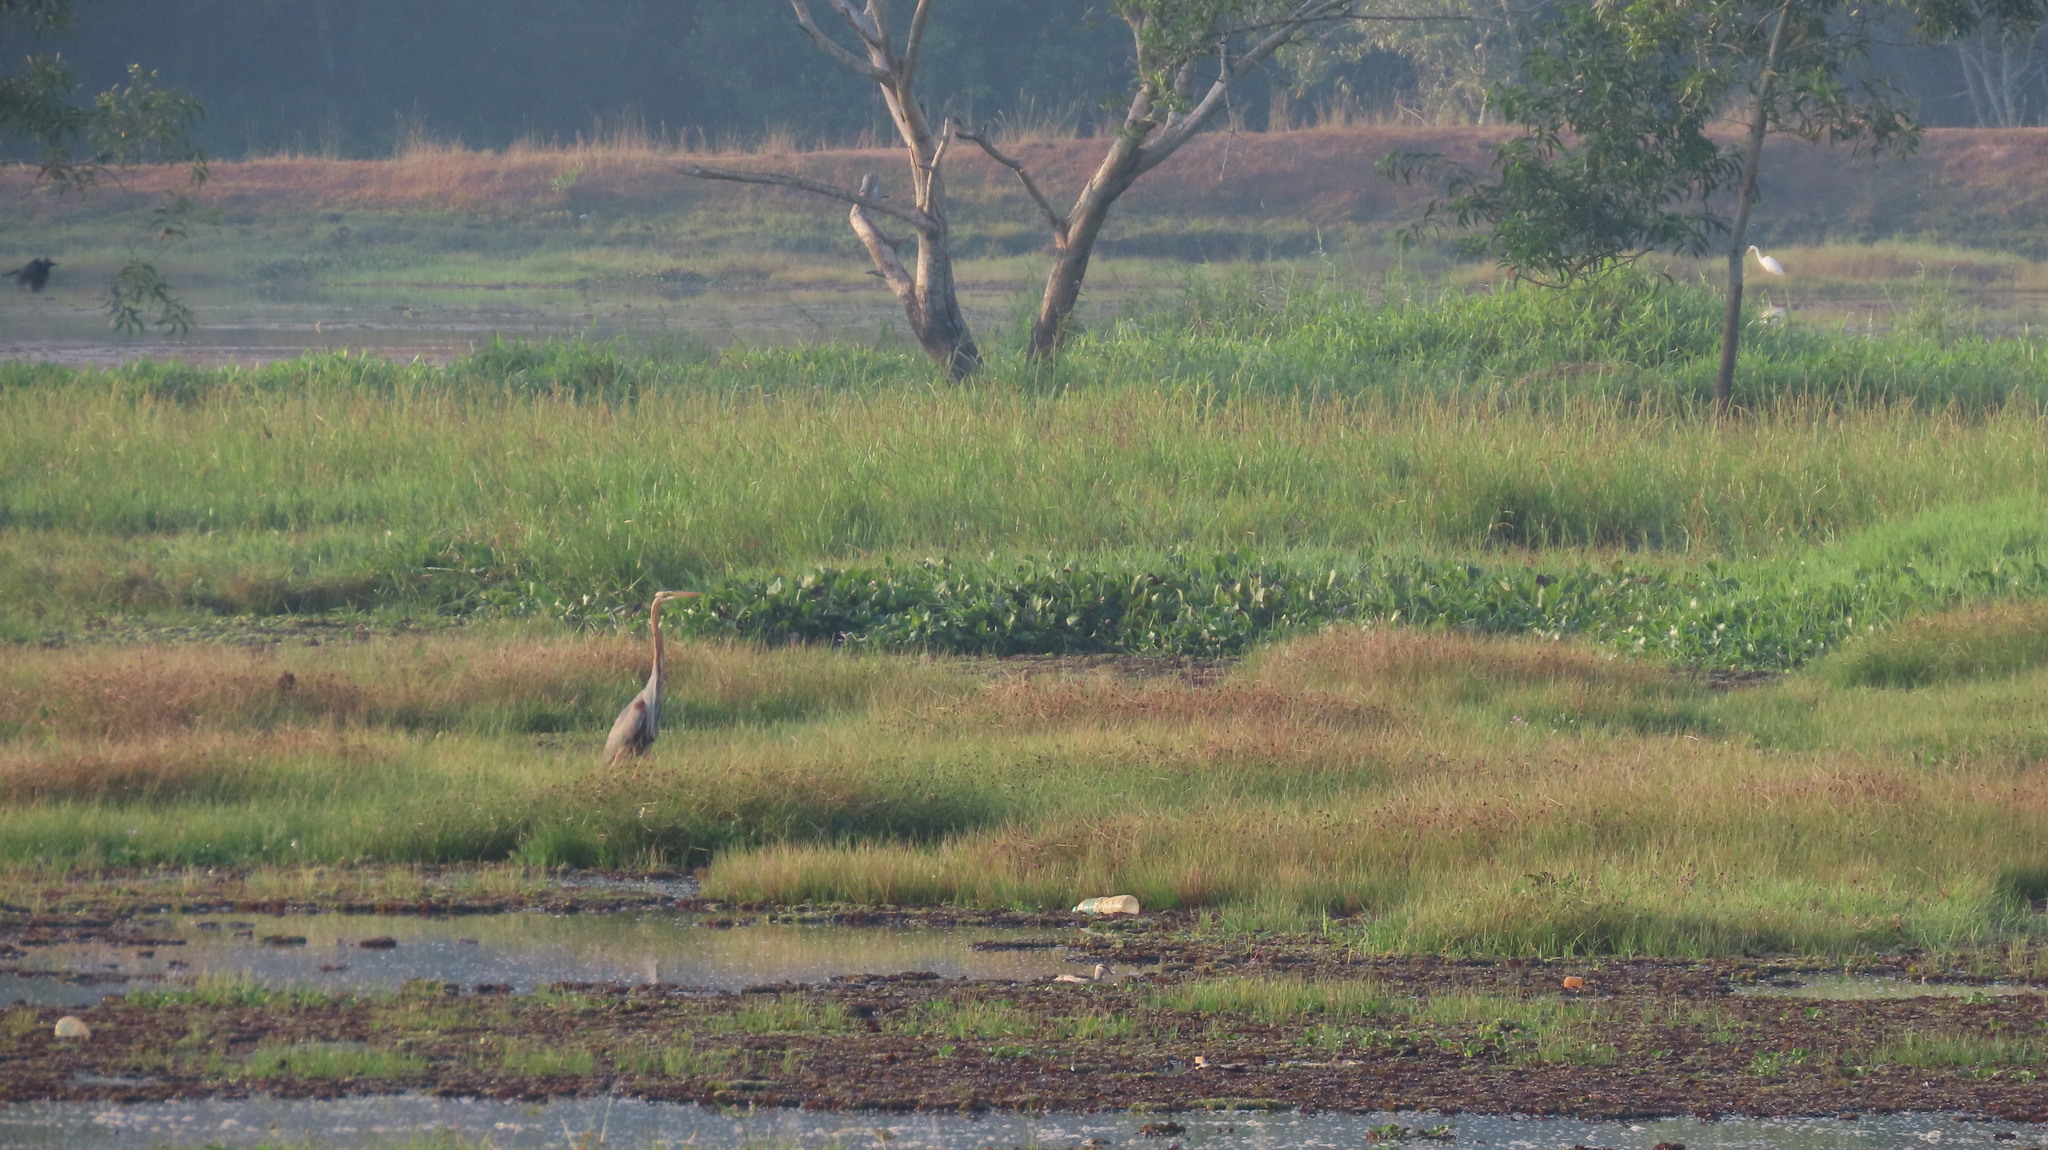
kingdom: Animalia
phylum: Chordata
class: Aves
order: Pelecaniformes
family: Ardeidae
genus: Ardea
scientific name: Ardea purpurea
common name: Purple heron
